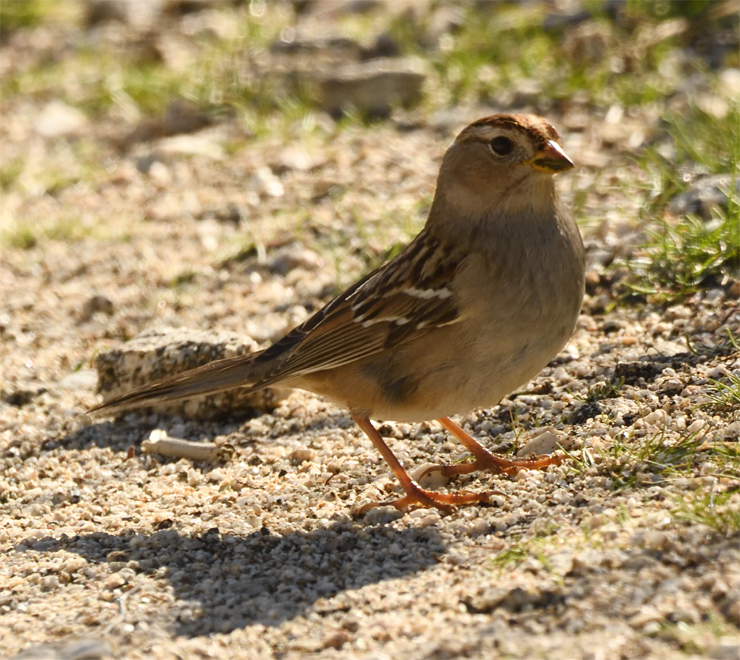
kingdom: Animalia
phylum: Chordata
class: Aves
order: Passeriformes
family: Passerellidae
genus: Zonotrichia
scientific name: Zonotrichia leucophrys
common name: White-crowned sparrow
